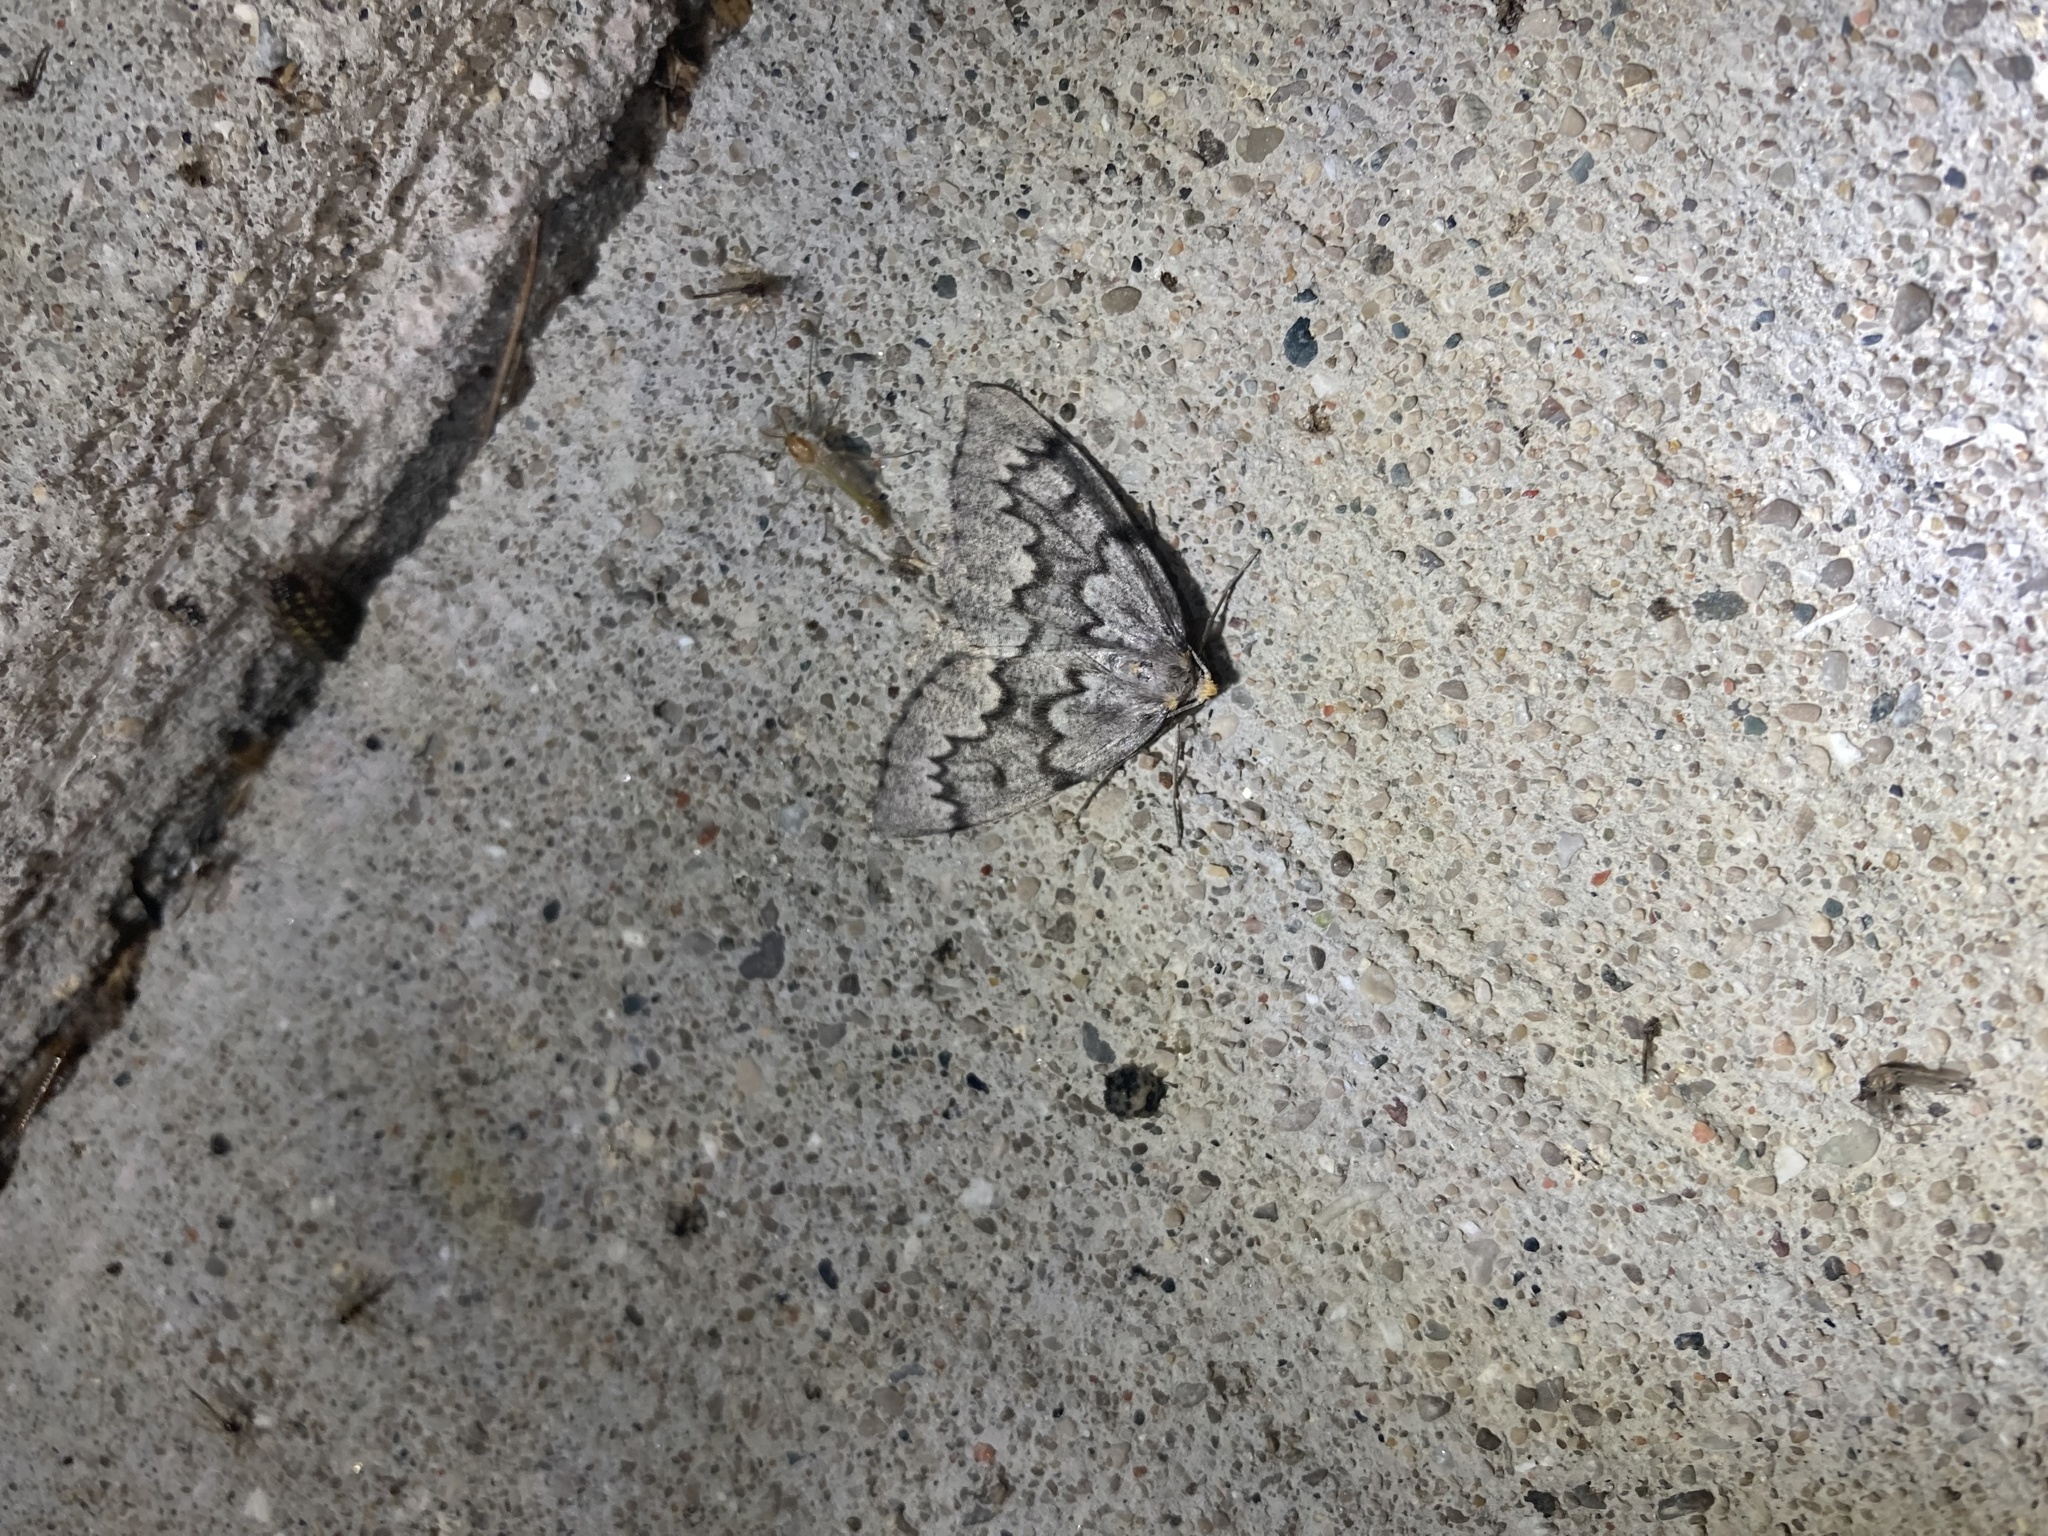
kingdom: Animalia
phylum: Arthropoda
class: Insecta
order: Lepidoptera
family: Geometridae
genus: Nepytia
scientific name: Nepytia canosaria
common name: False hemlock looper
